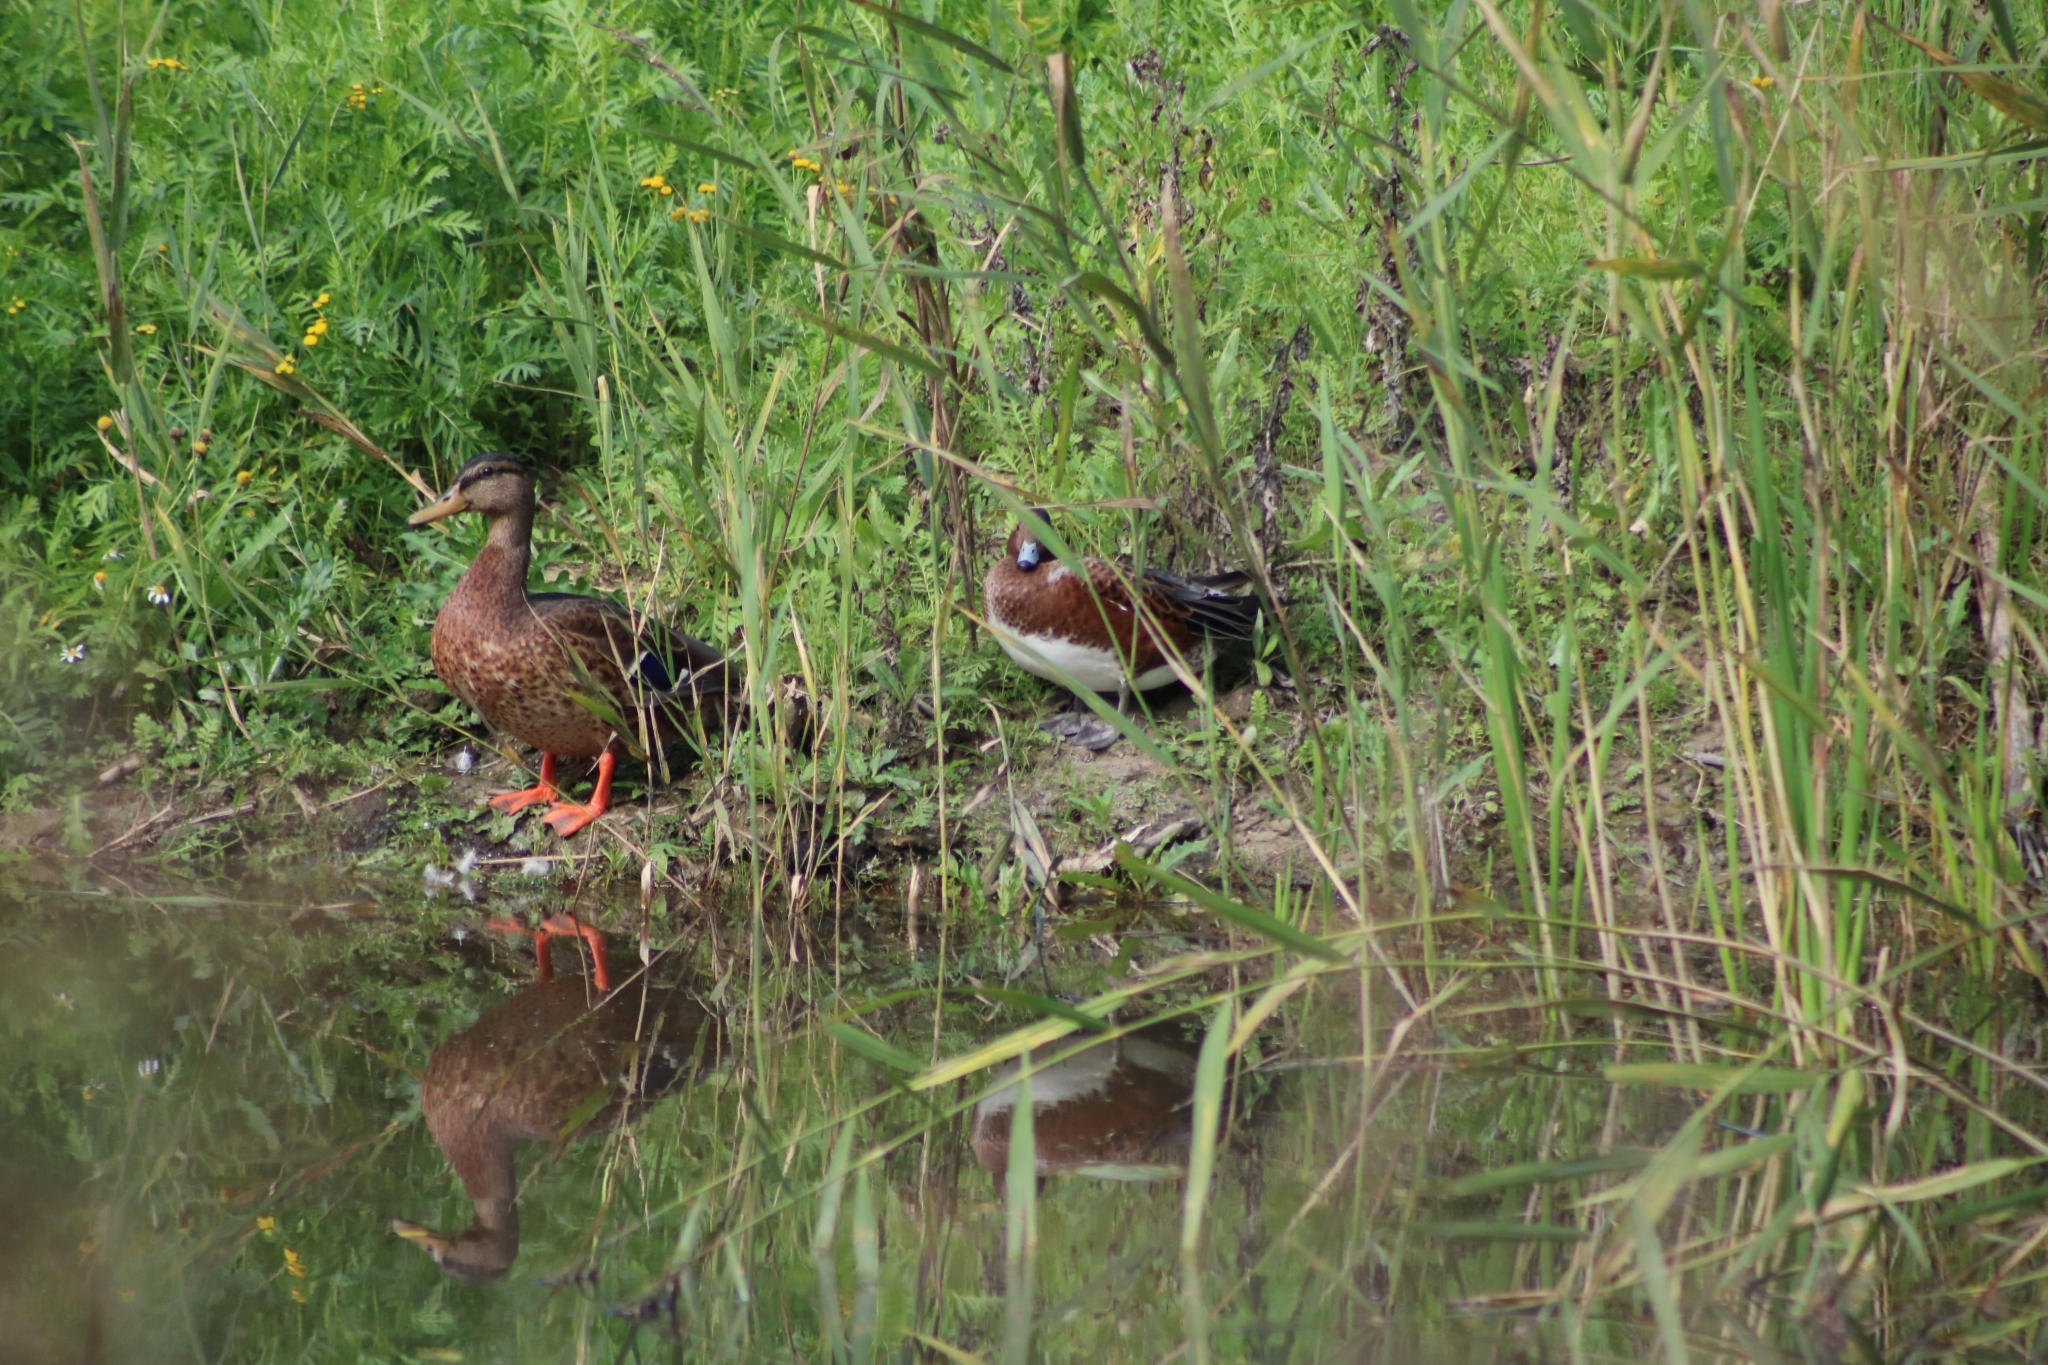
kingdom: Animalia
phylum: Chordata
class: Aves
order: Anseriformes
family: Anatidae
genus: Mareca
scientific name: Mareca penelope
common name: Eurasian wigeon
